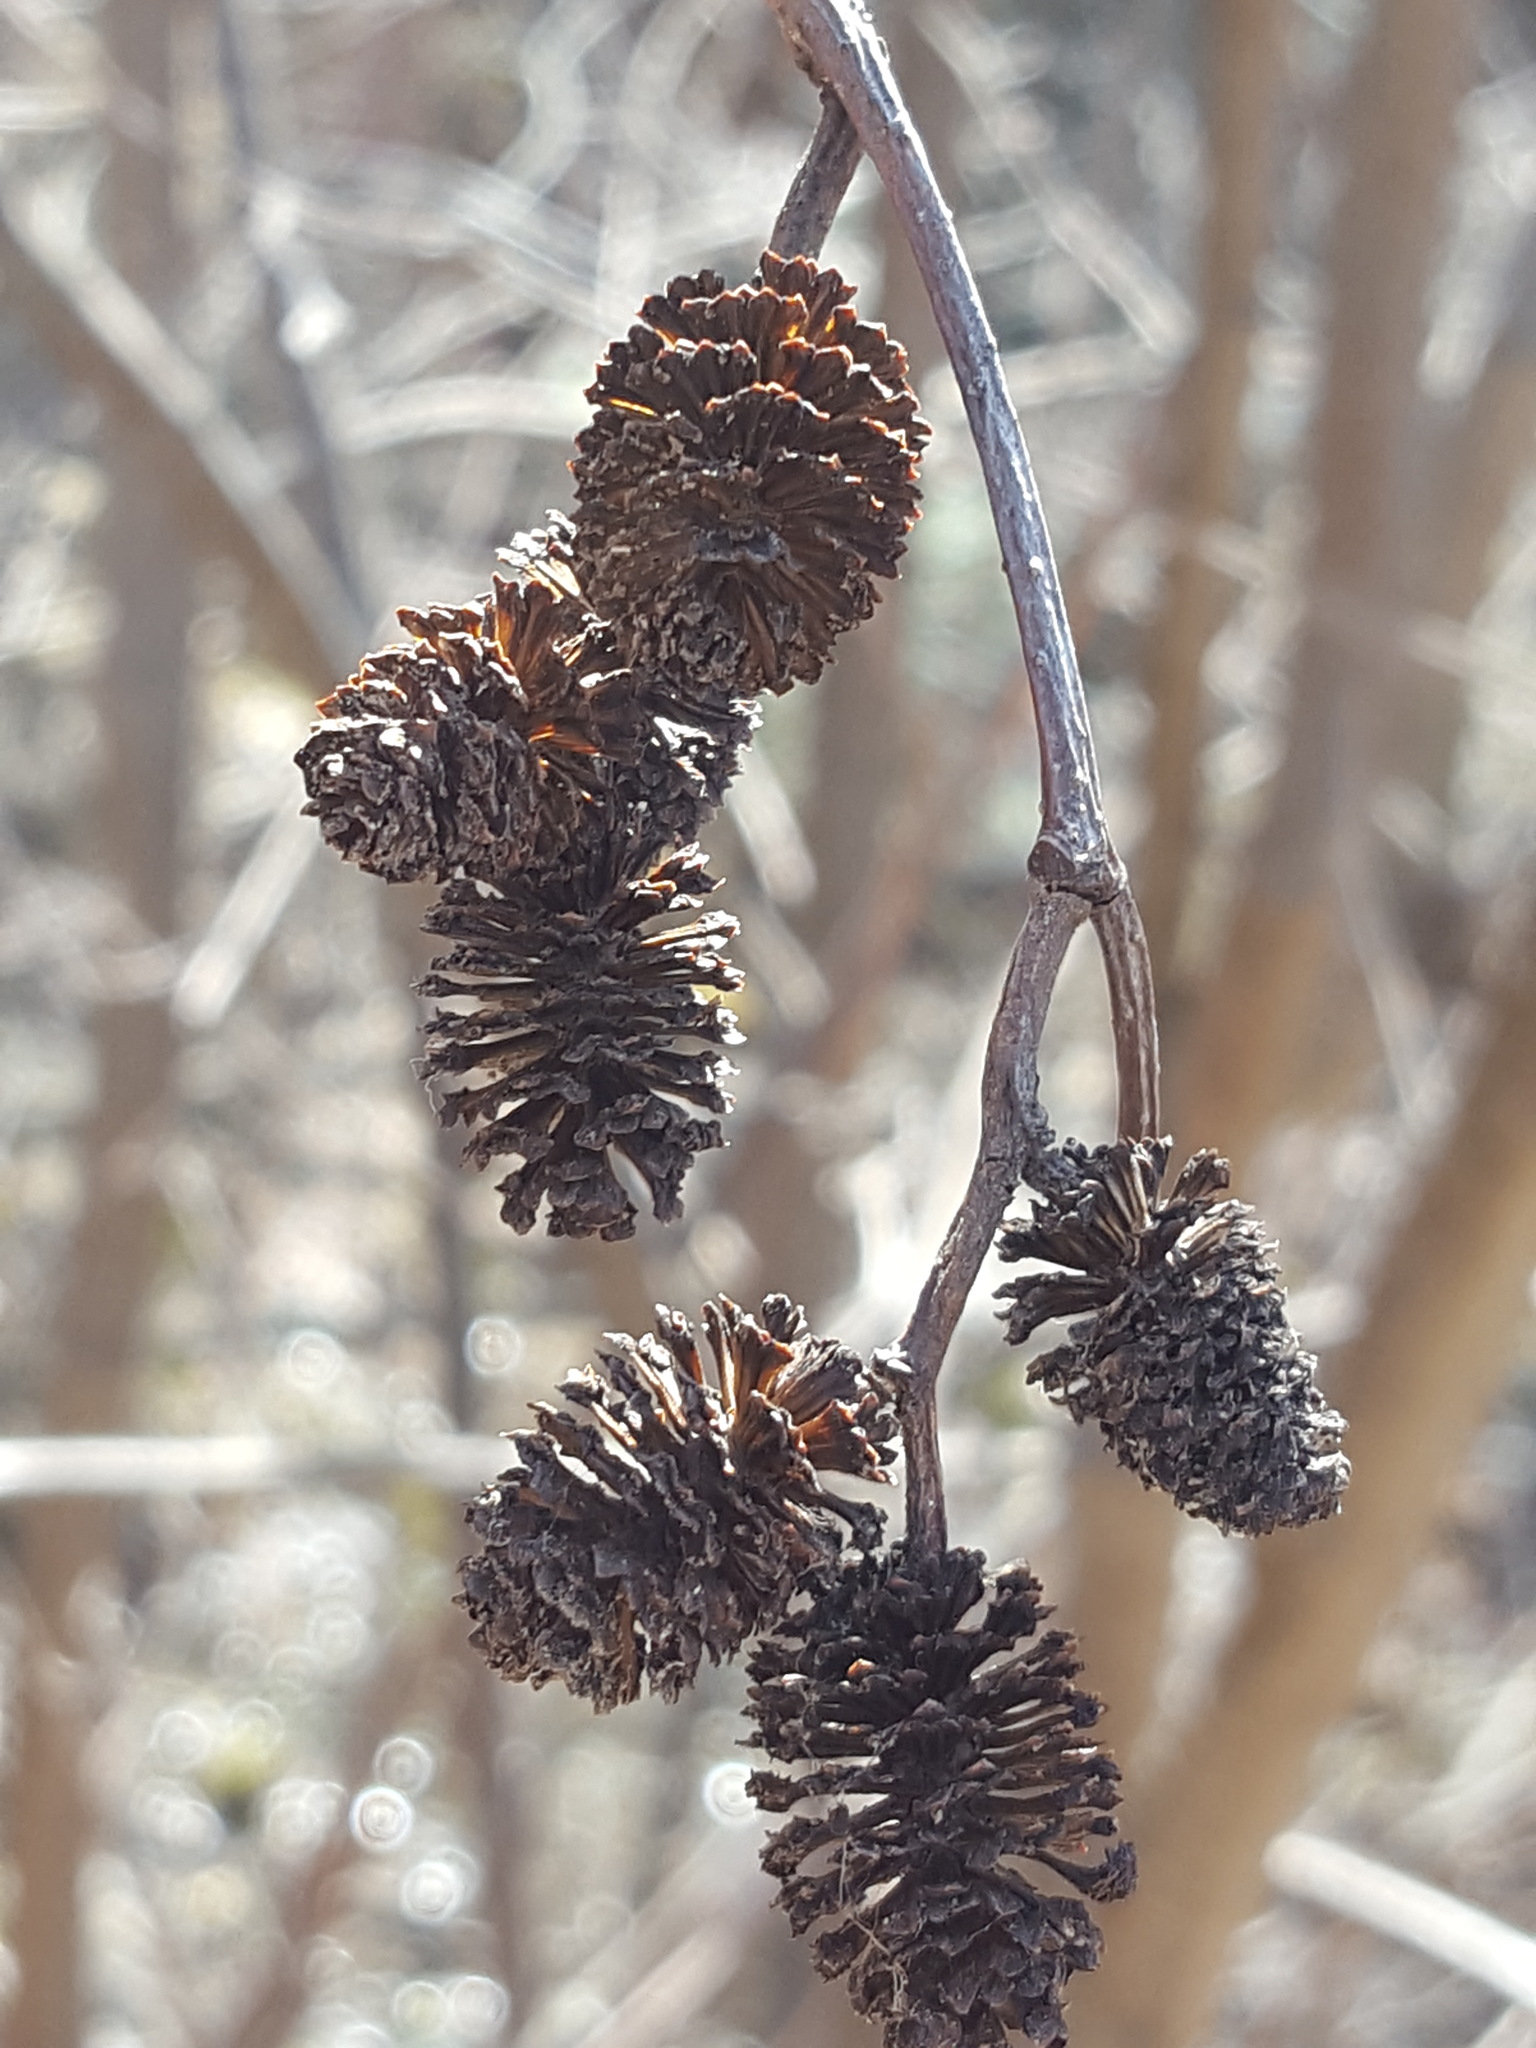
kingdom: Plantae
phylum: Tracheophyta
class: Magnoliopsida
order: Fagales
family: Betulaceae
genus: Alnus
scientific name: Alnus incana
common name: Grey alder
